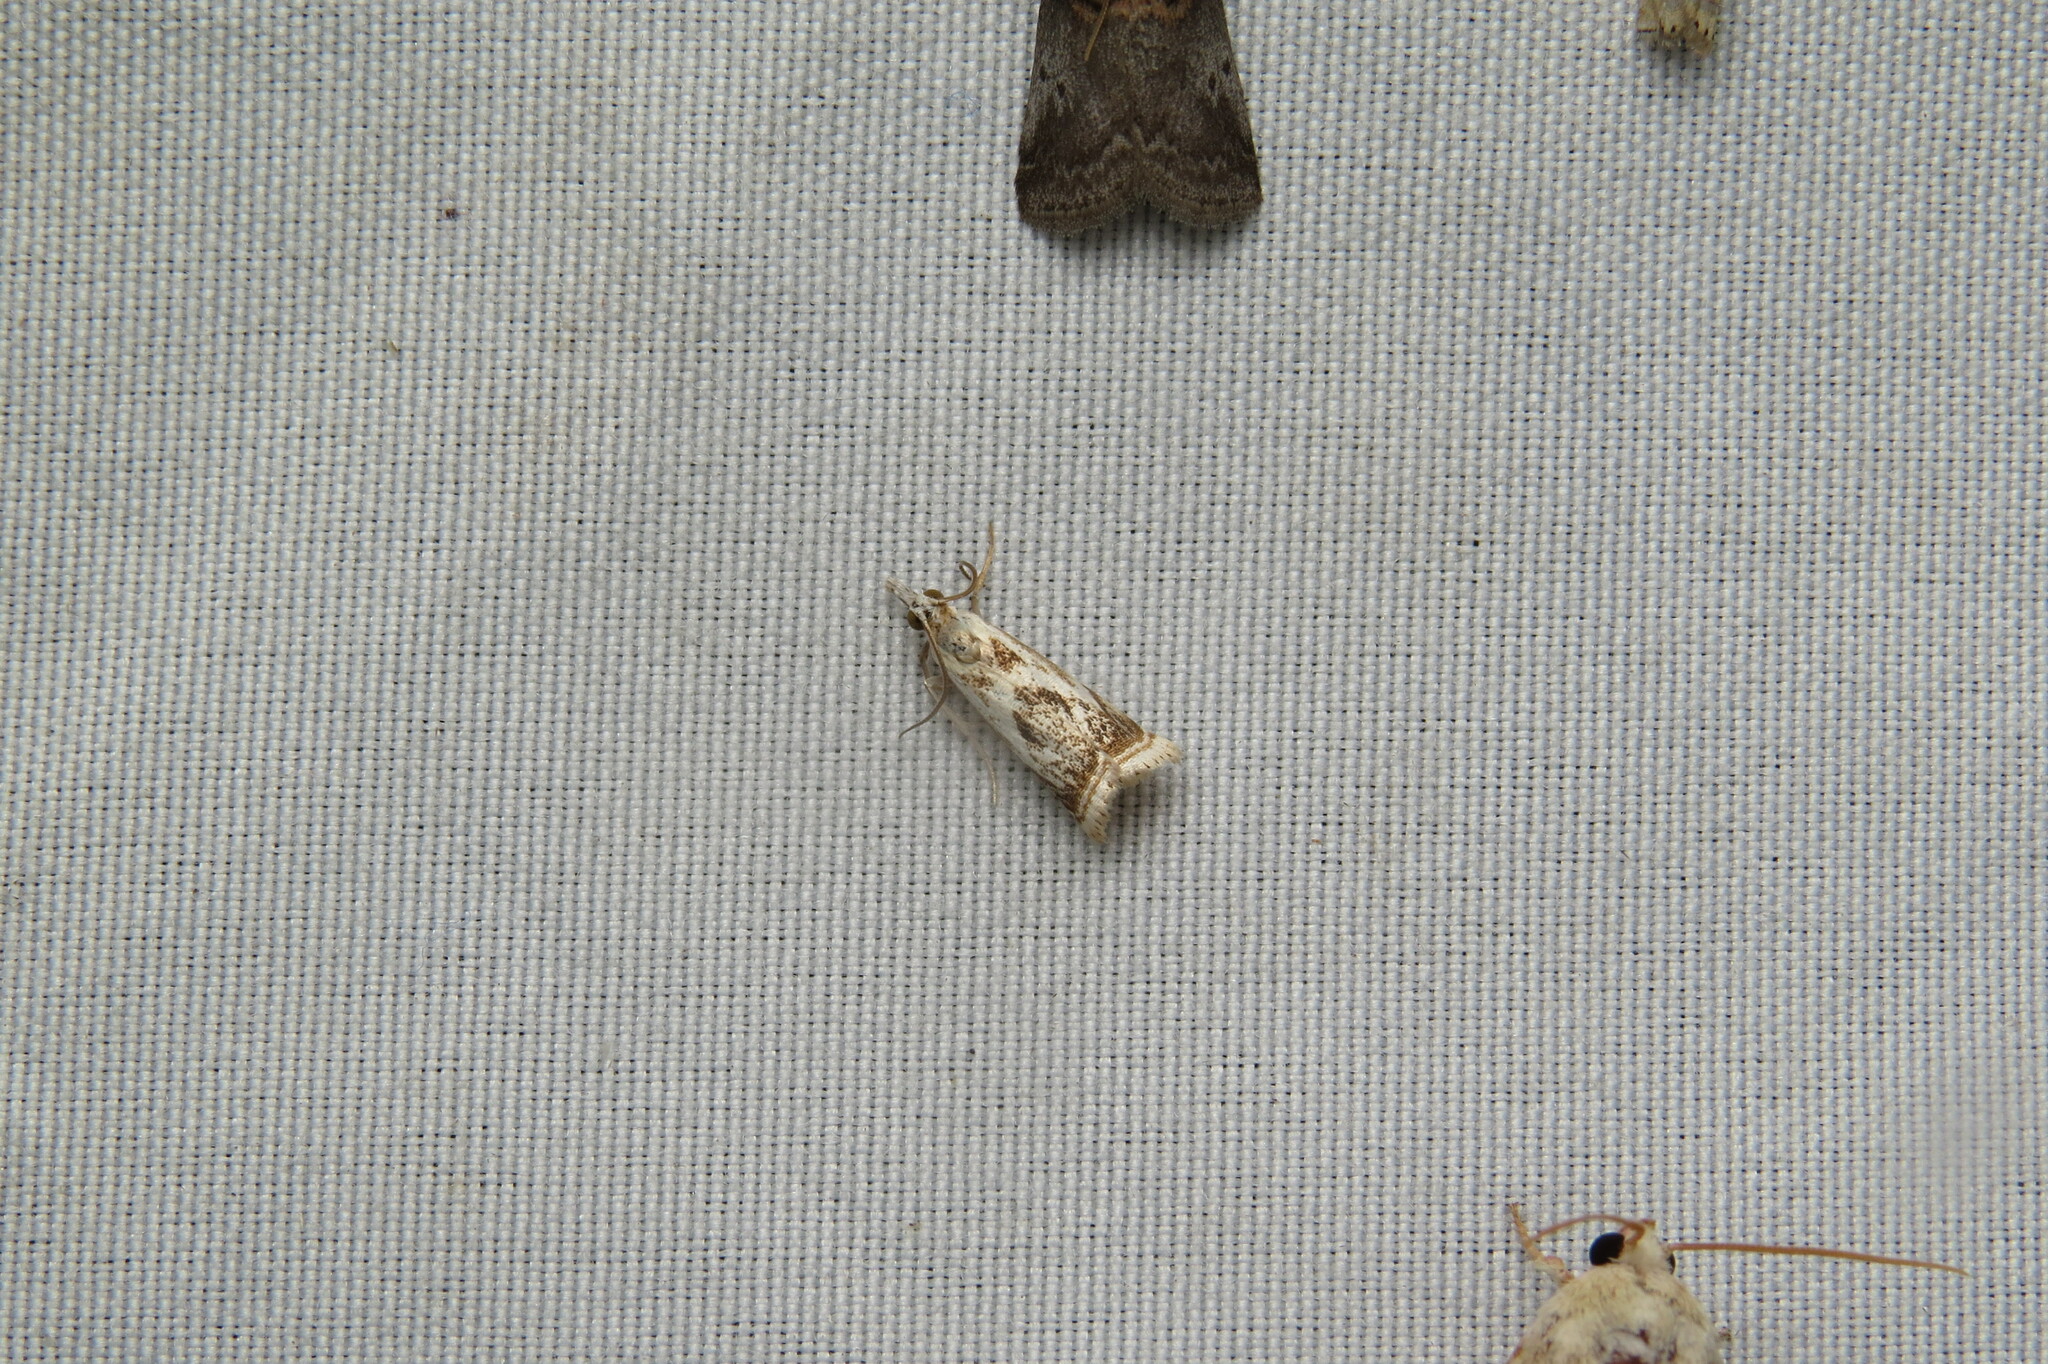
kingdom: Animalia
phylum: Arthropoda
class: Insecta
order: Lepidoptera
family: Crambidae
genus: Microcrambus
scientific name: Microcrambus elegans
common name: Elegant grass-veneer
